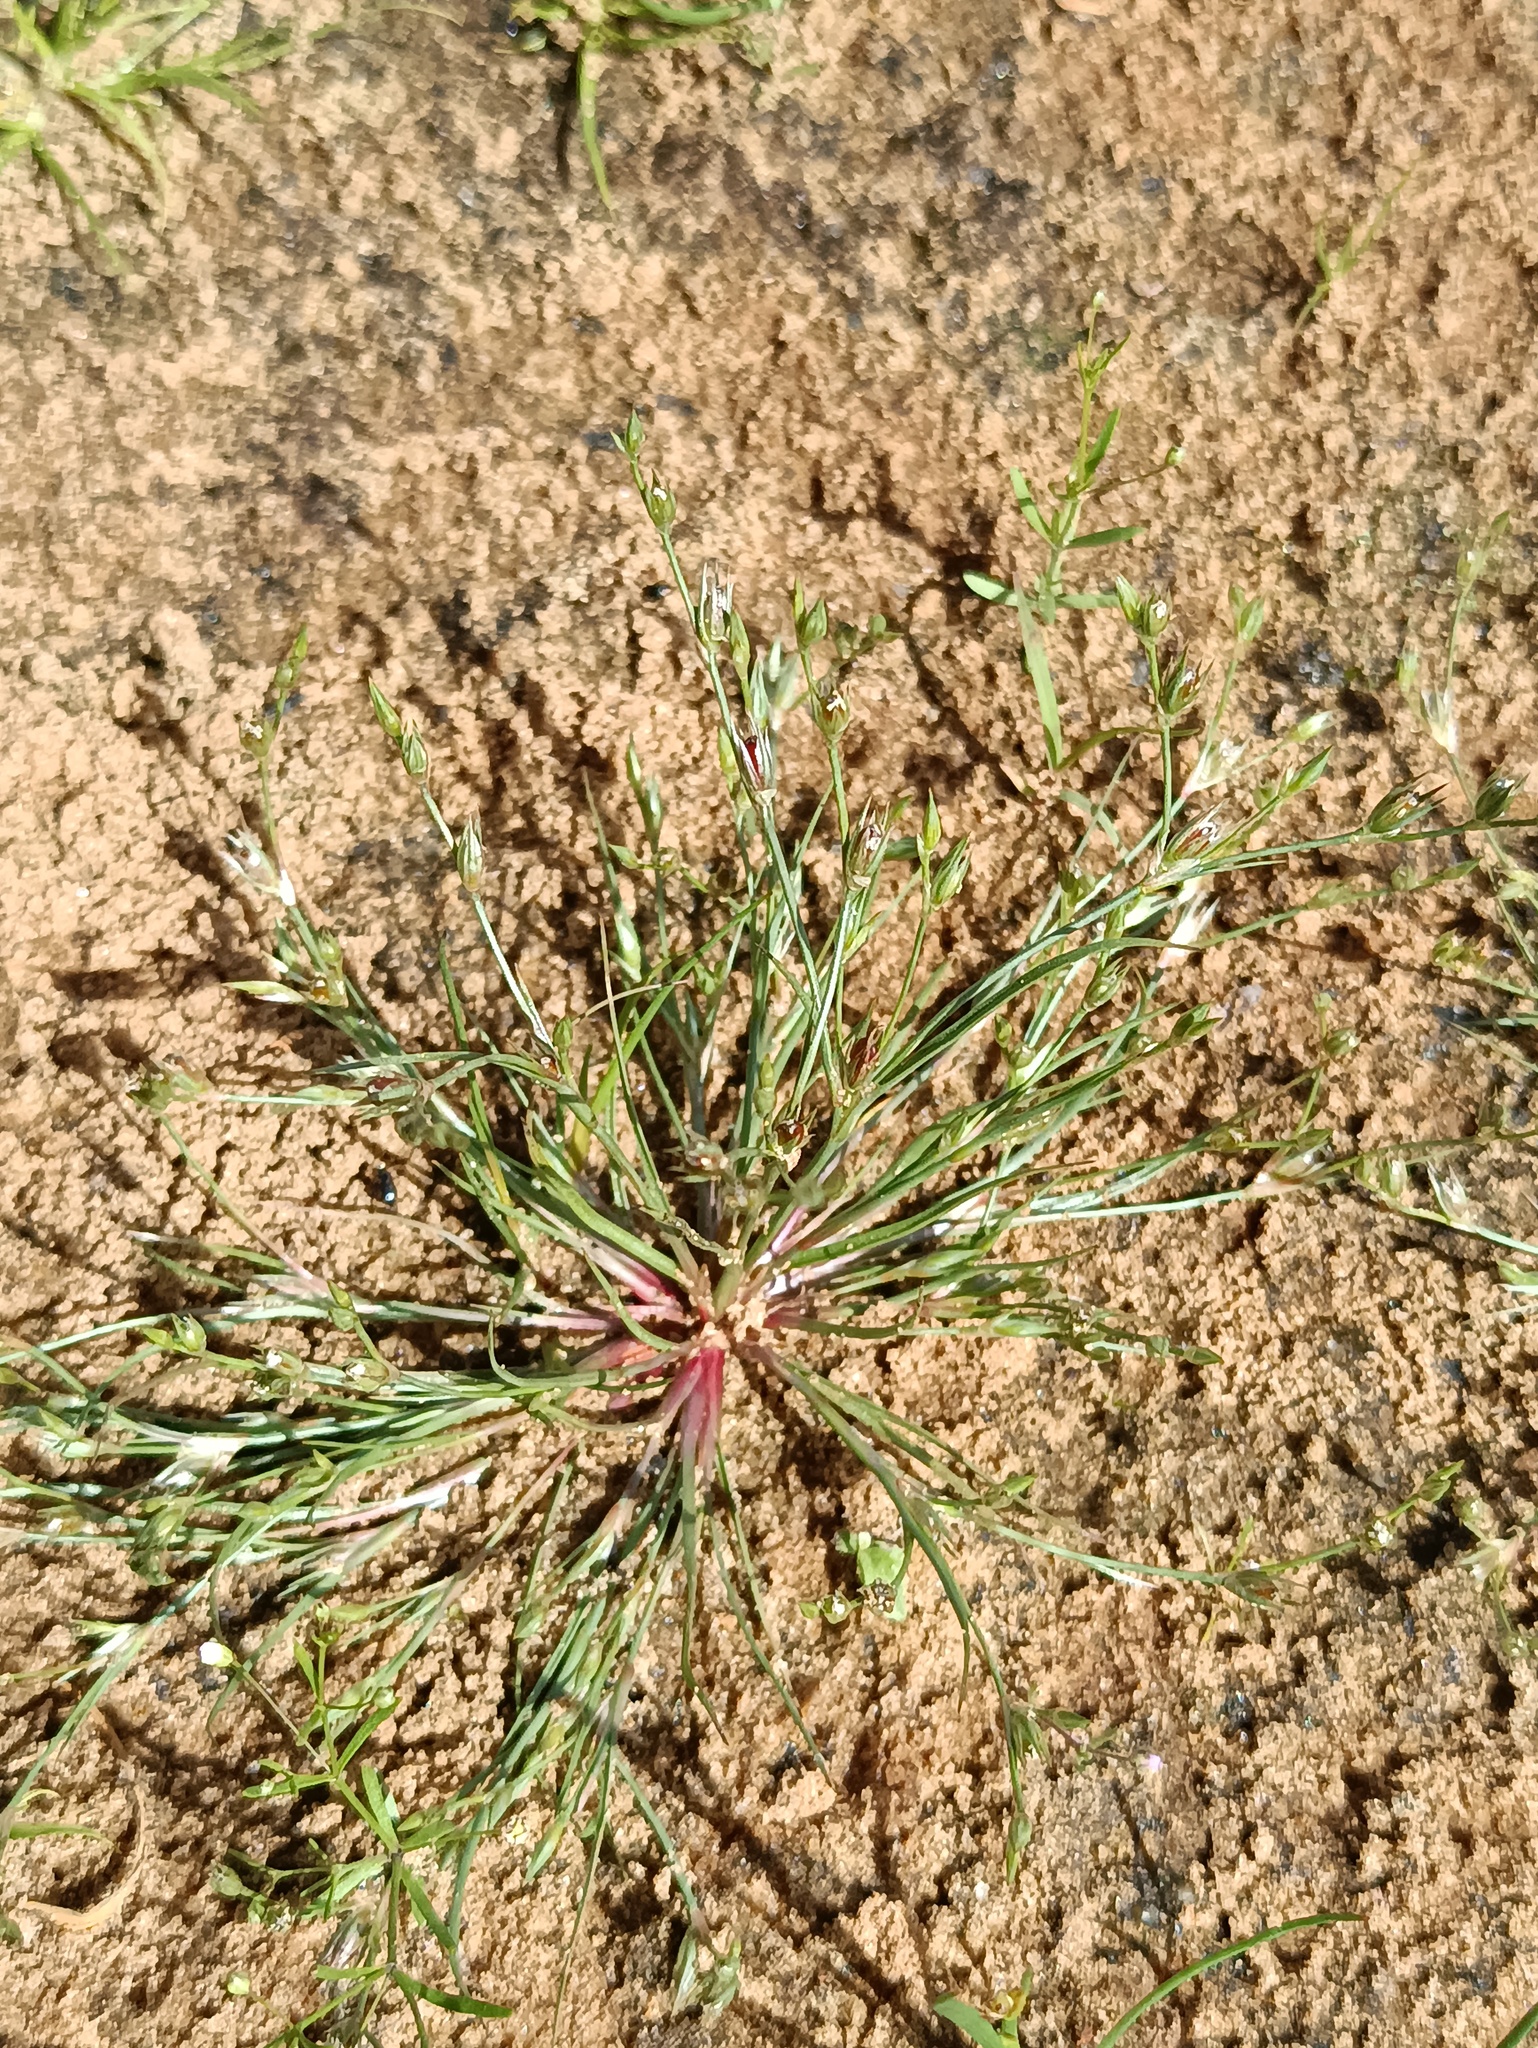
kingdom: Plantae
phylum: Tracheophyta
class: Magnoliopsida
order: Caryophyllales
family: Caryophyllaceae
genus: Psammophiliella
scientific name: Psammophiliella muralis
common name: Cushion baby's-breath
